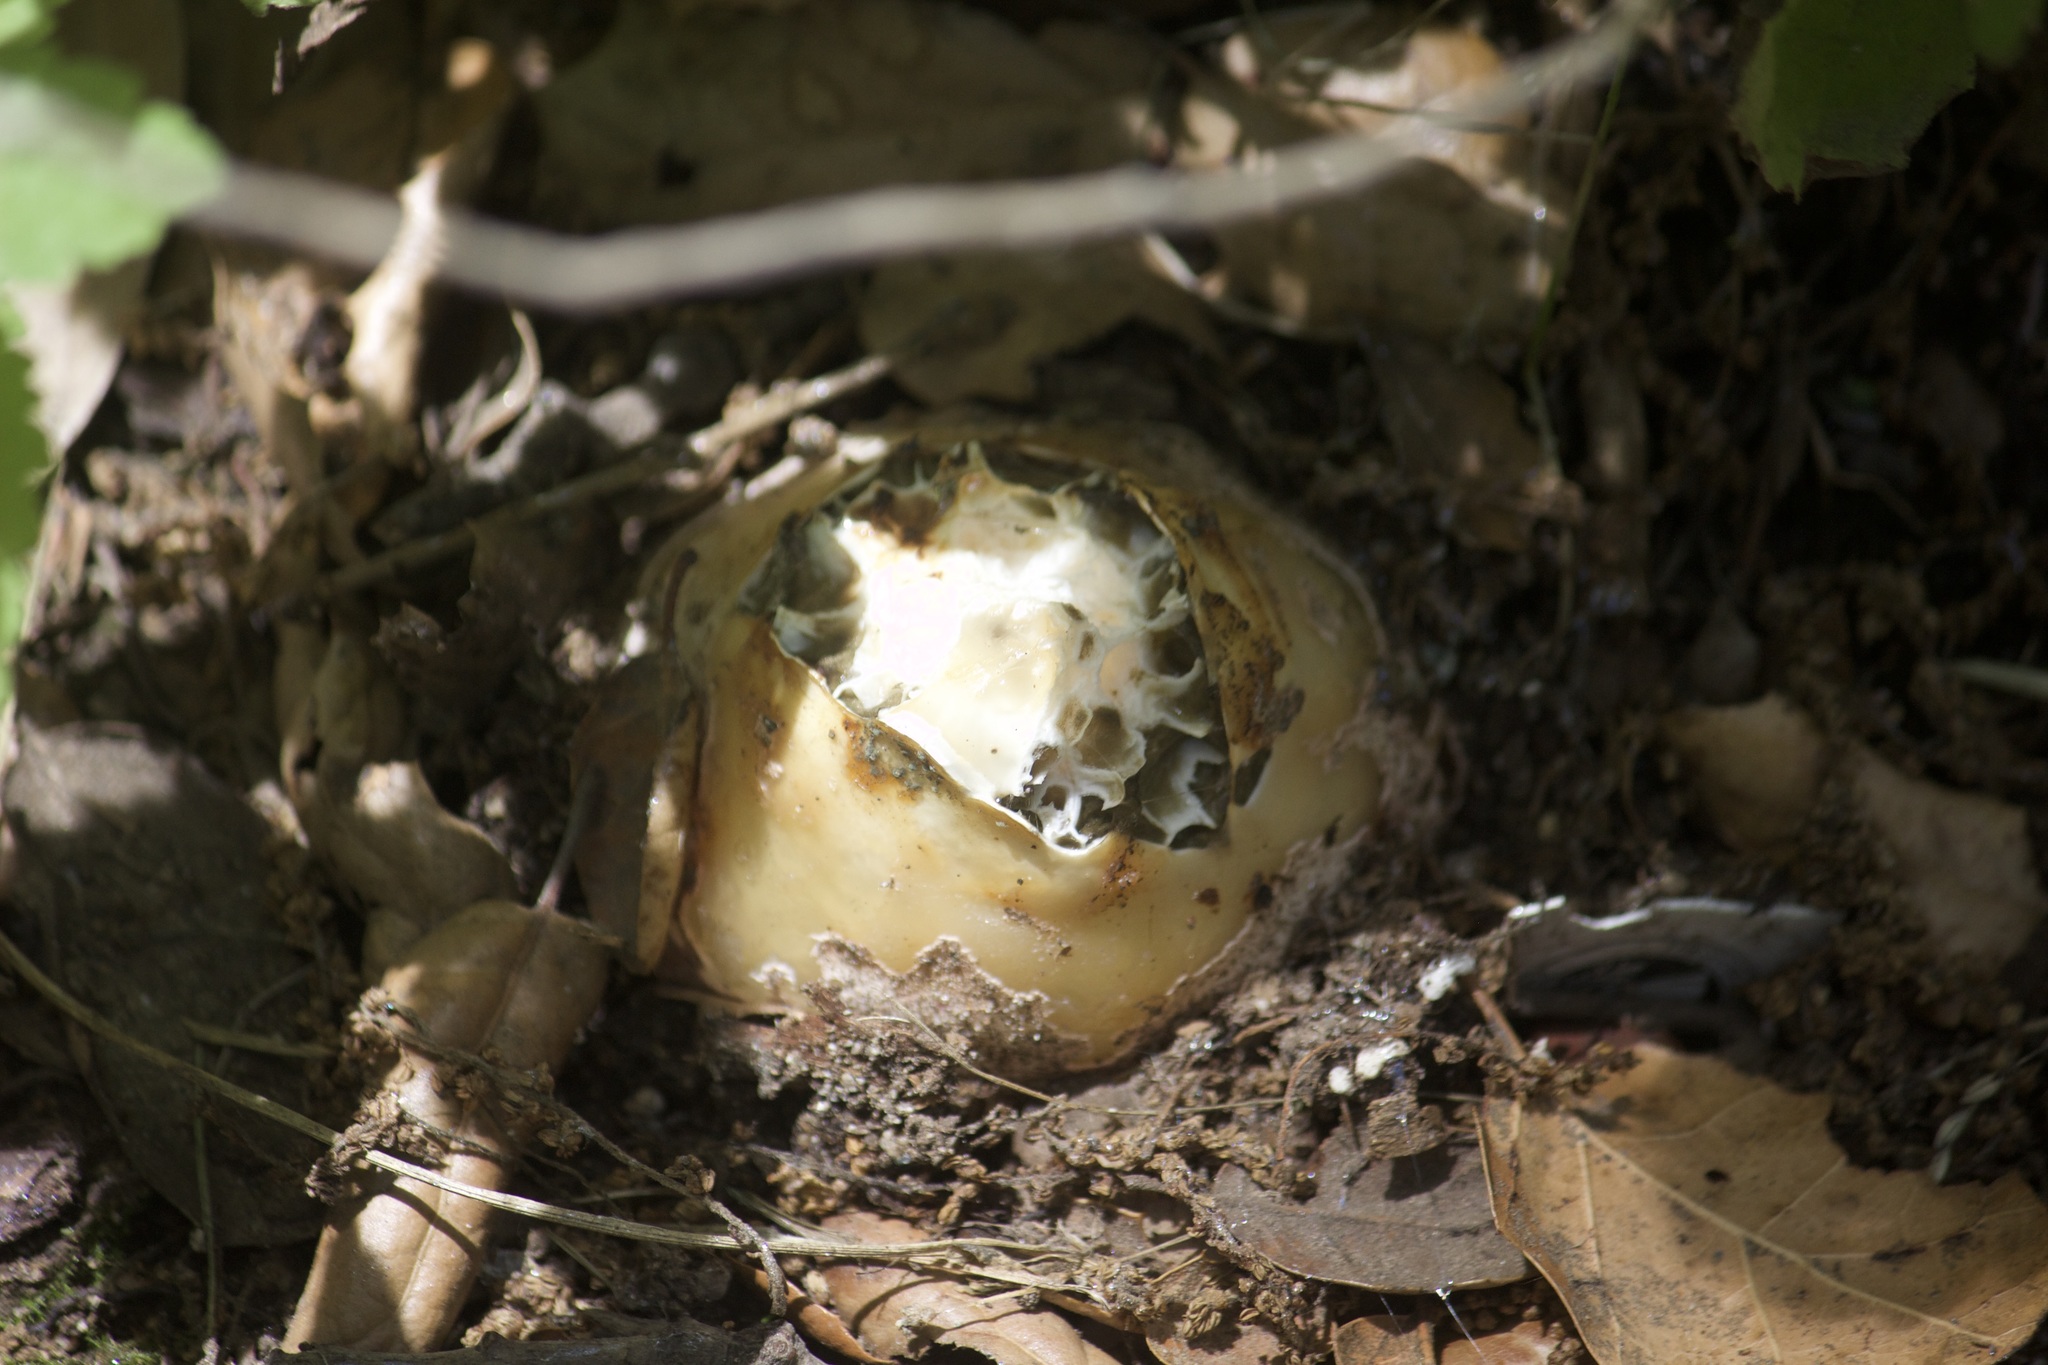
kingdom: Fungi
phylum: Basidiomycota
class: Agaricomycetes
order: Phallales
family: Phallaceae
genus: Phallus
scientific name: Phallus impudicus
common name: Common stinkhorn
